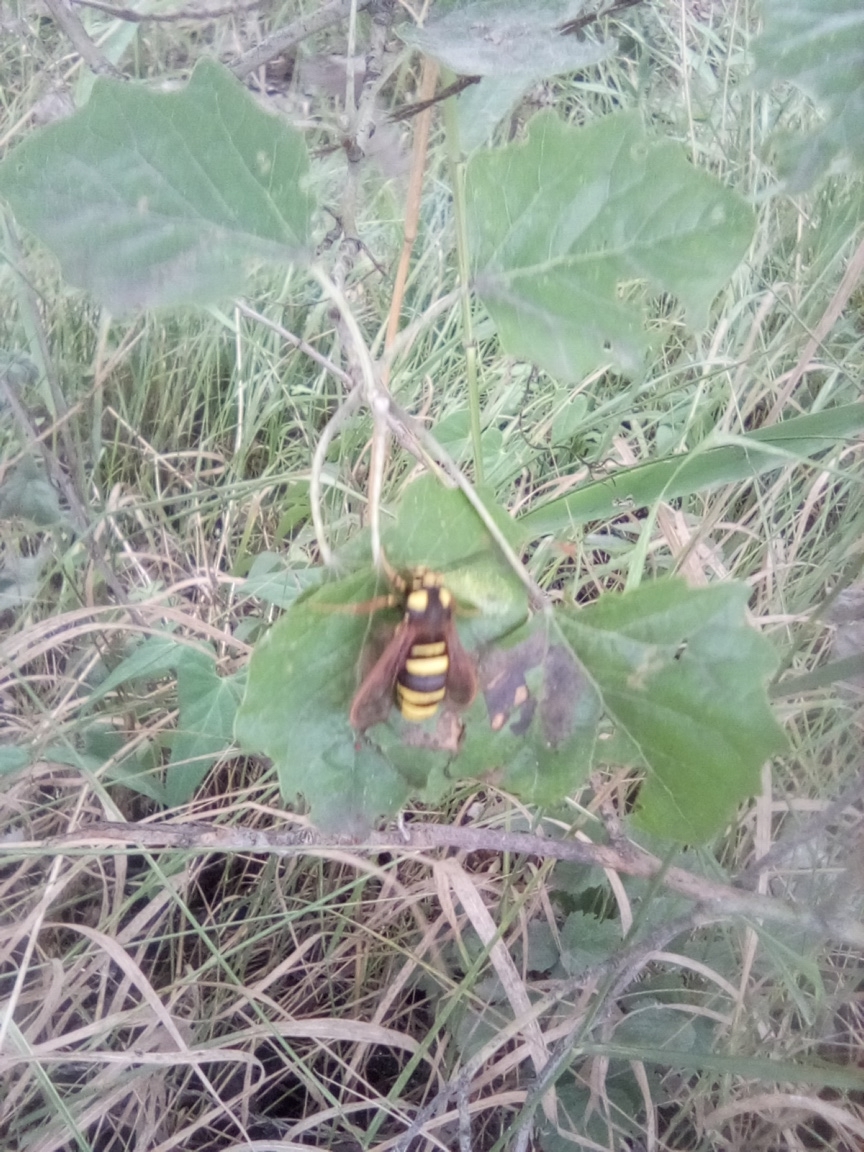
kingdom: Animalia
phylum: Arthropoda
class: Insecta
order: Lepidoptera
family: Sesiidae
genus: Sesia
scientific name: Sesia apiformis
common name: Hornet moth
